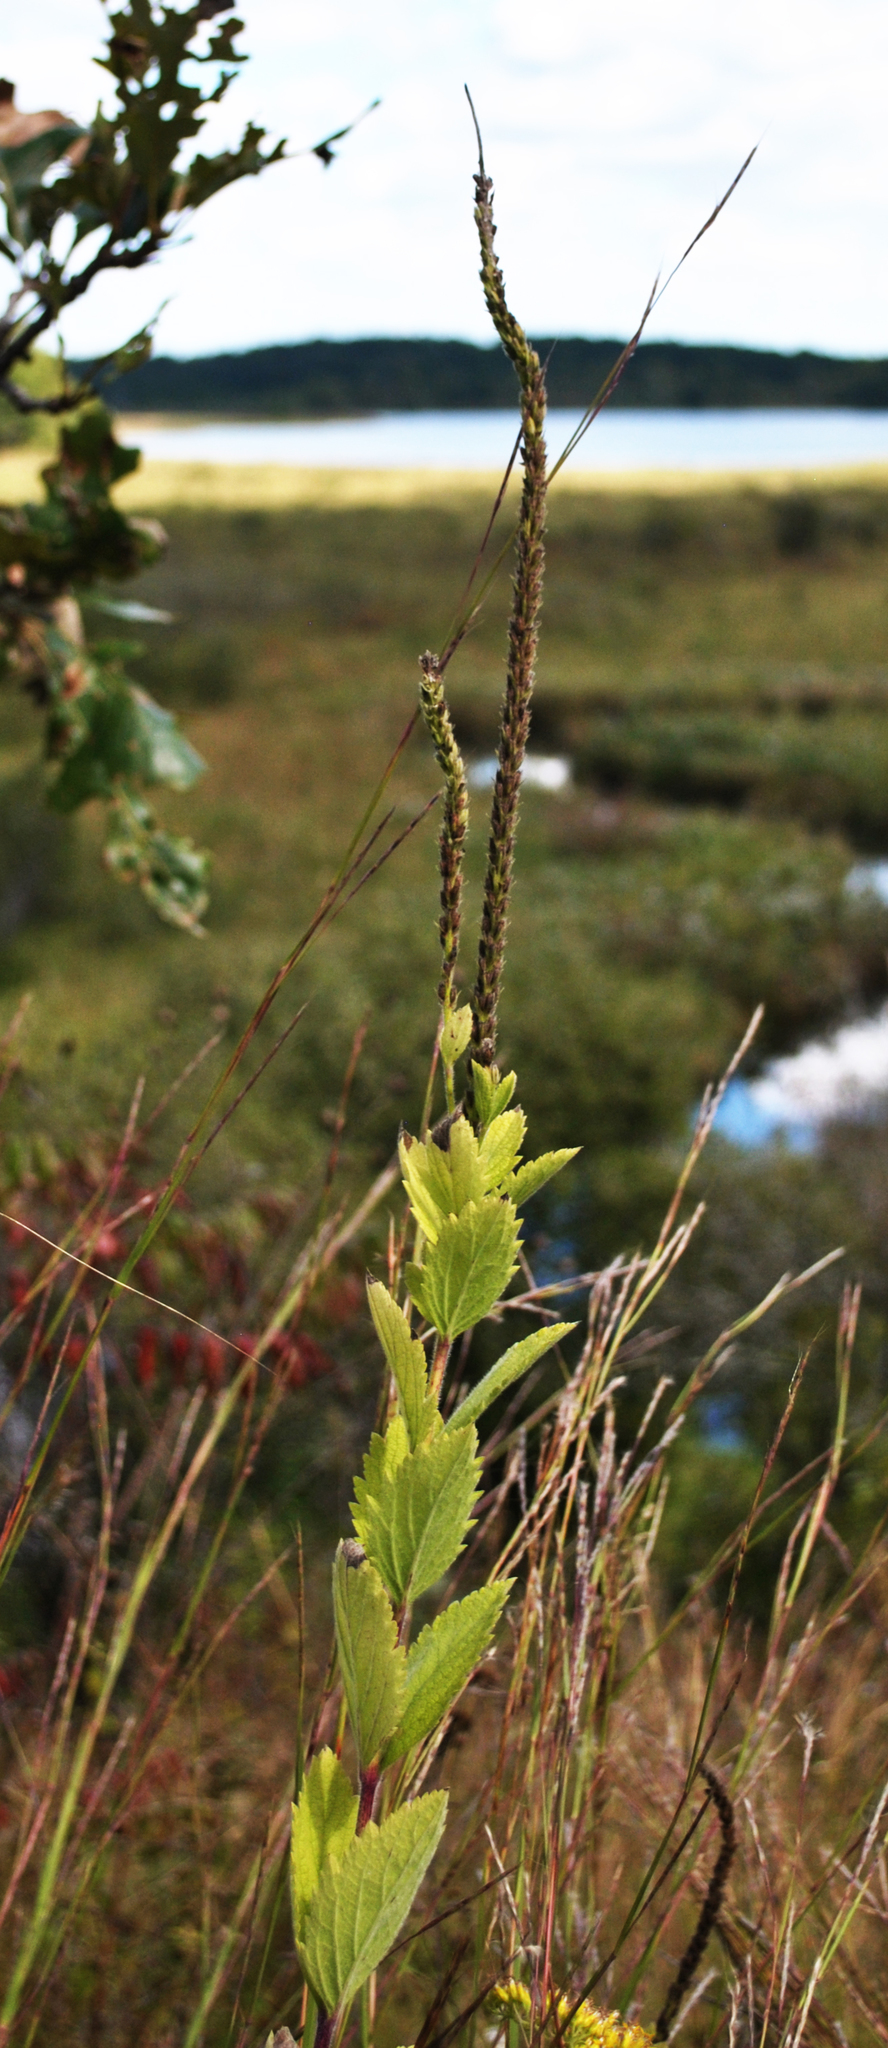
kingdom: Plantae
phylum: Tracheophyta
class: Magnoliopsida
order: Lamiales
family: Verbenaceae
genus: Verbena
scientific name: Verbena stricta
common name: Hoary vervain
